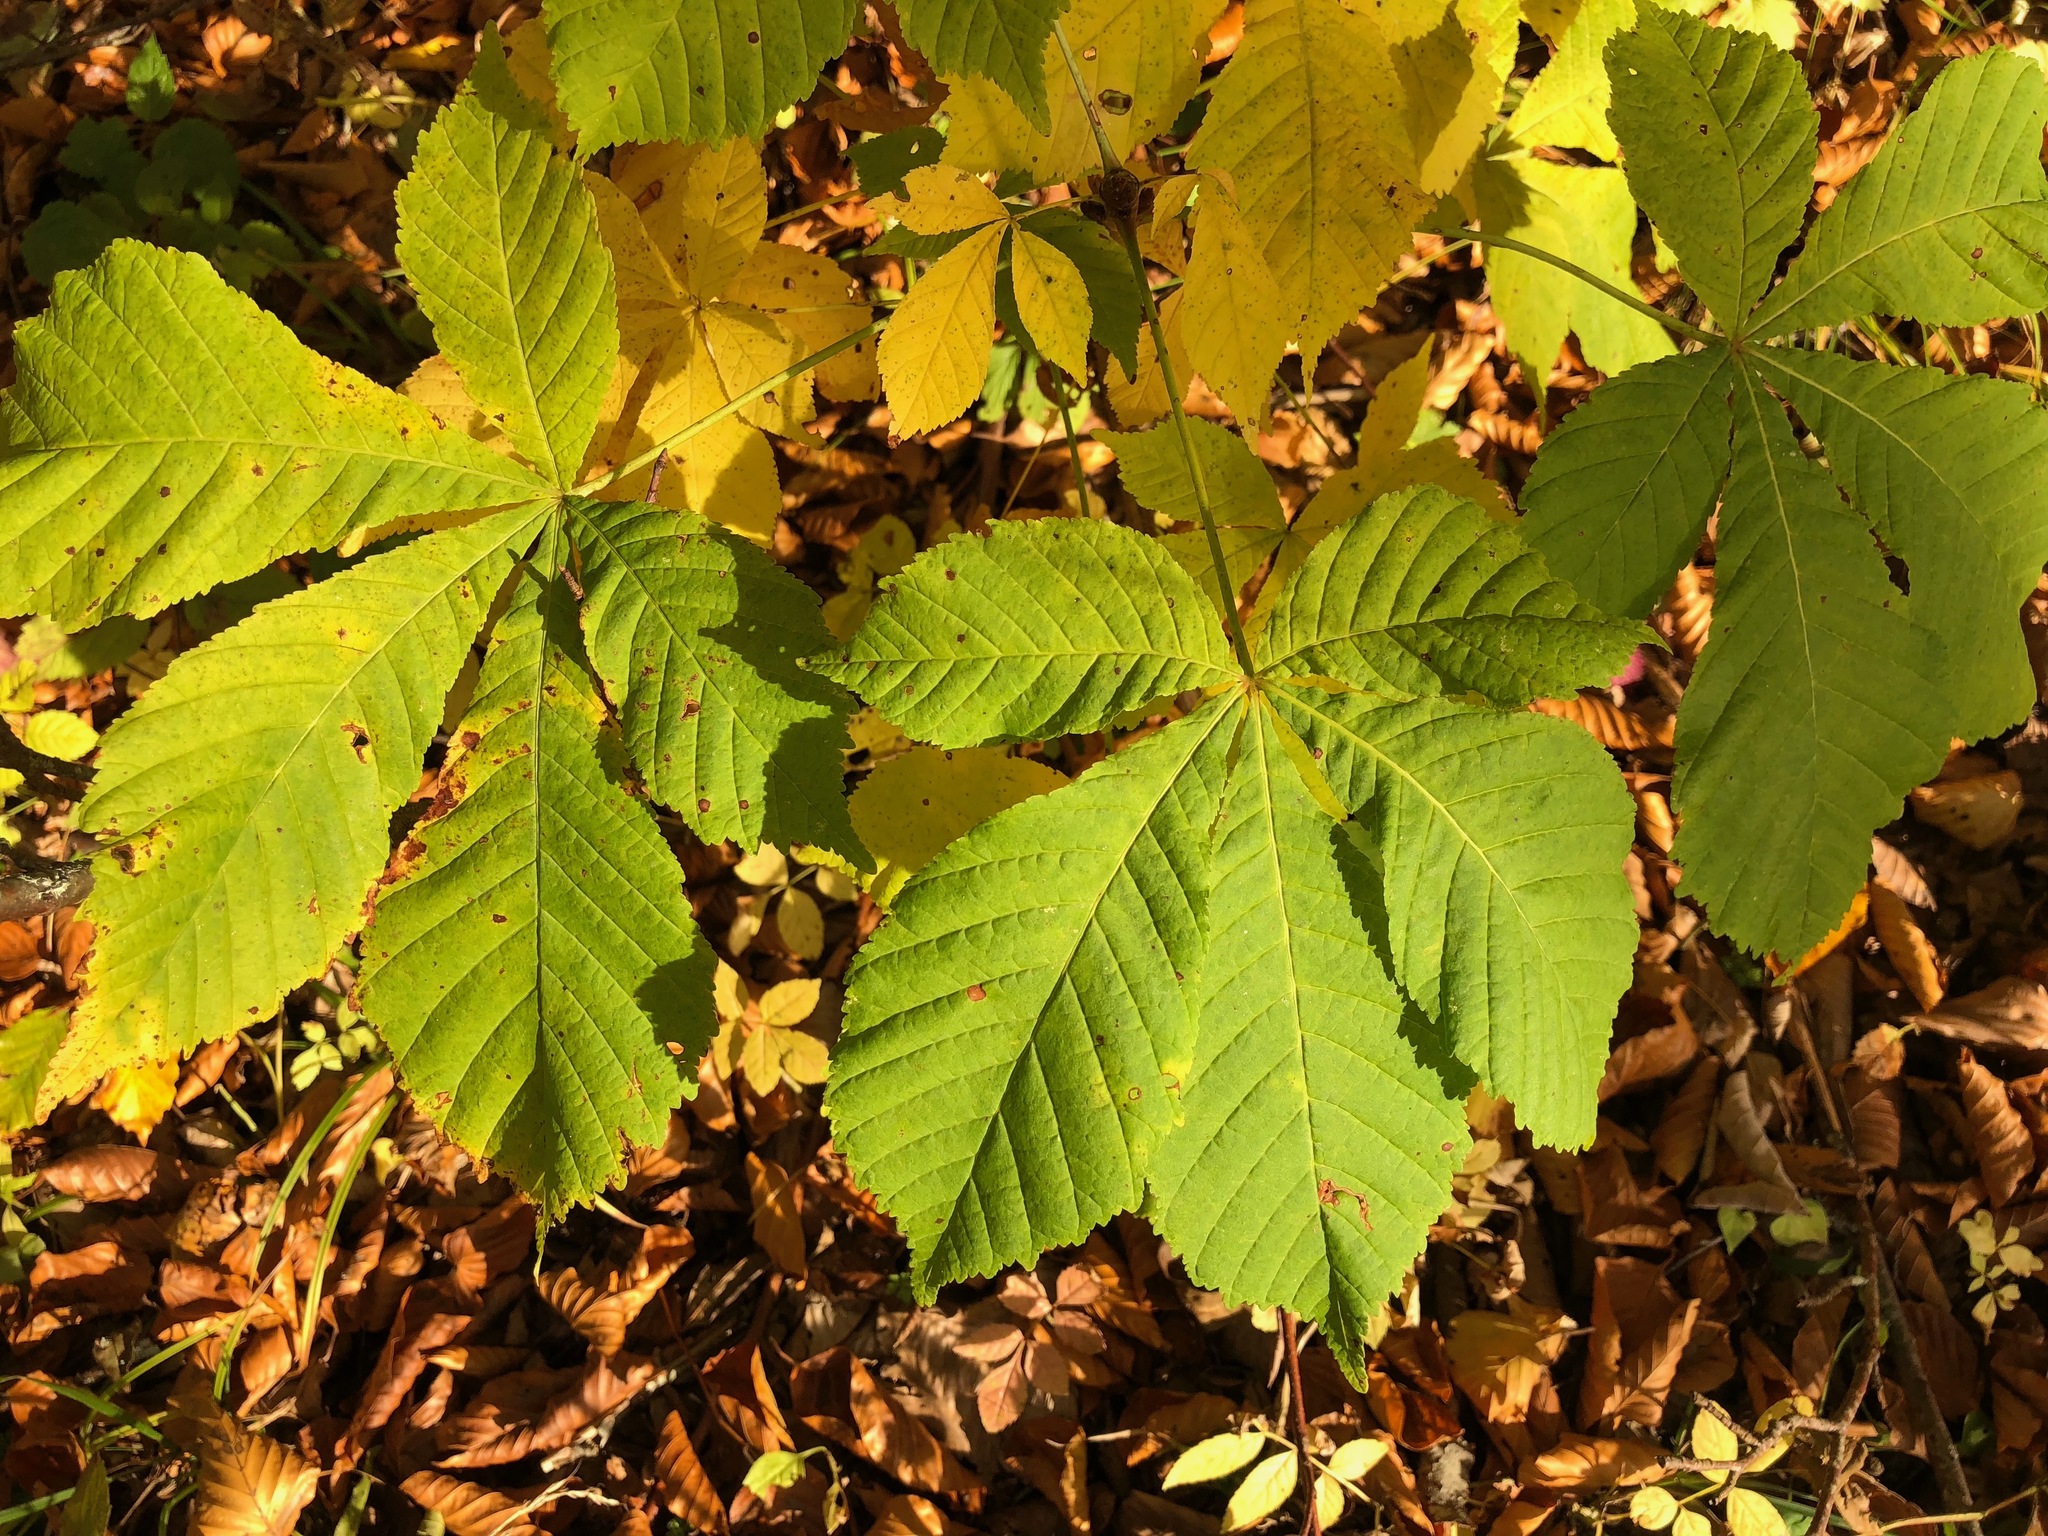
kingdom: Plantae
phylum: Tracheophyta
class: Magnoliopsida
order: Sapindales
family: Sapindaceae
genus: Aesculus
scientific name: Aesculus hippocastanum
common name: Horse-chestnut
